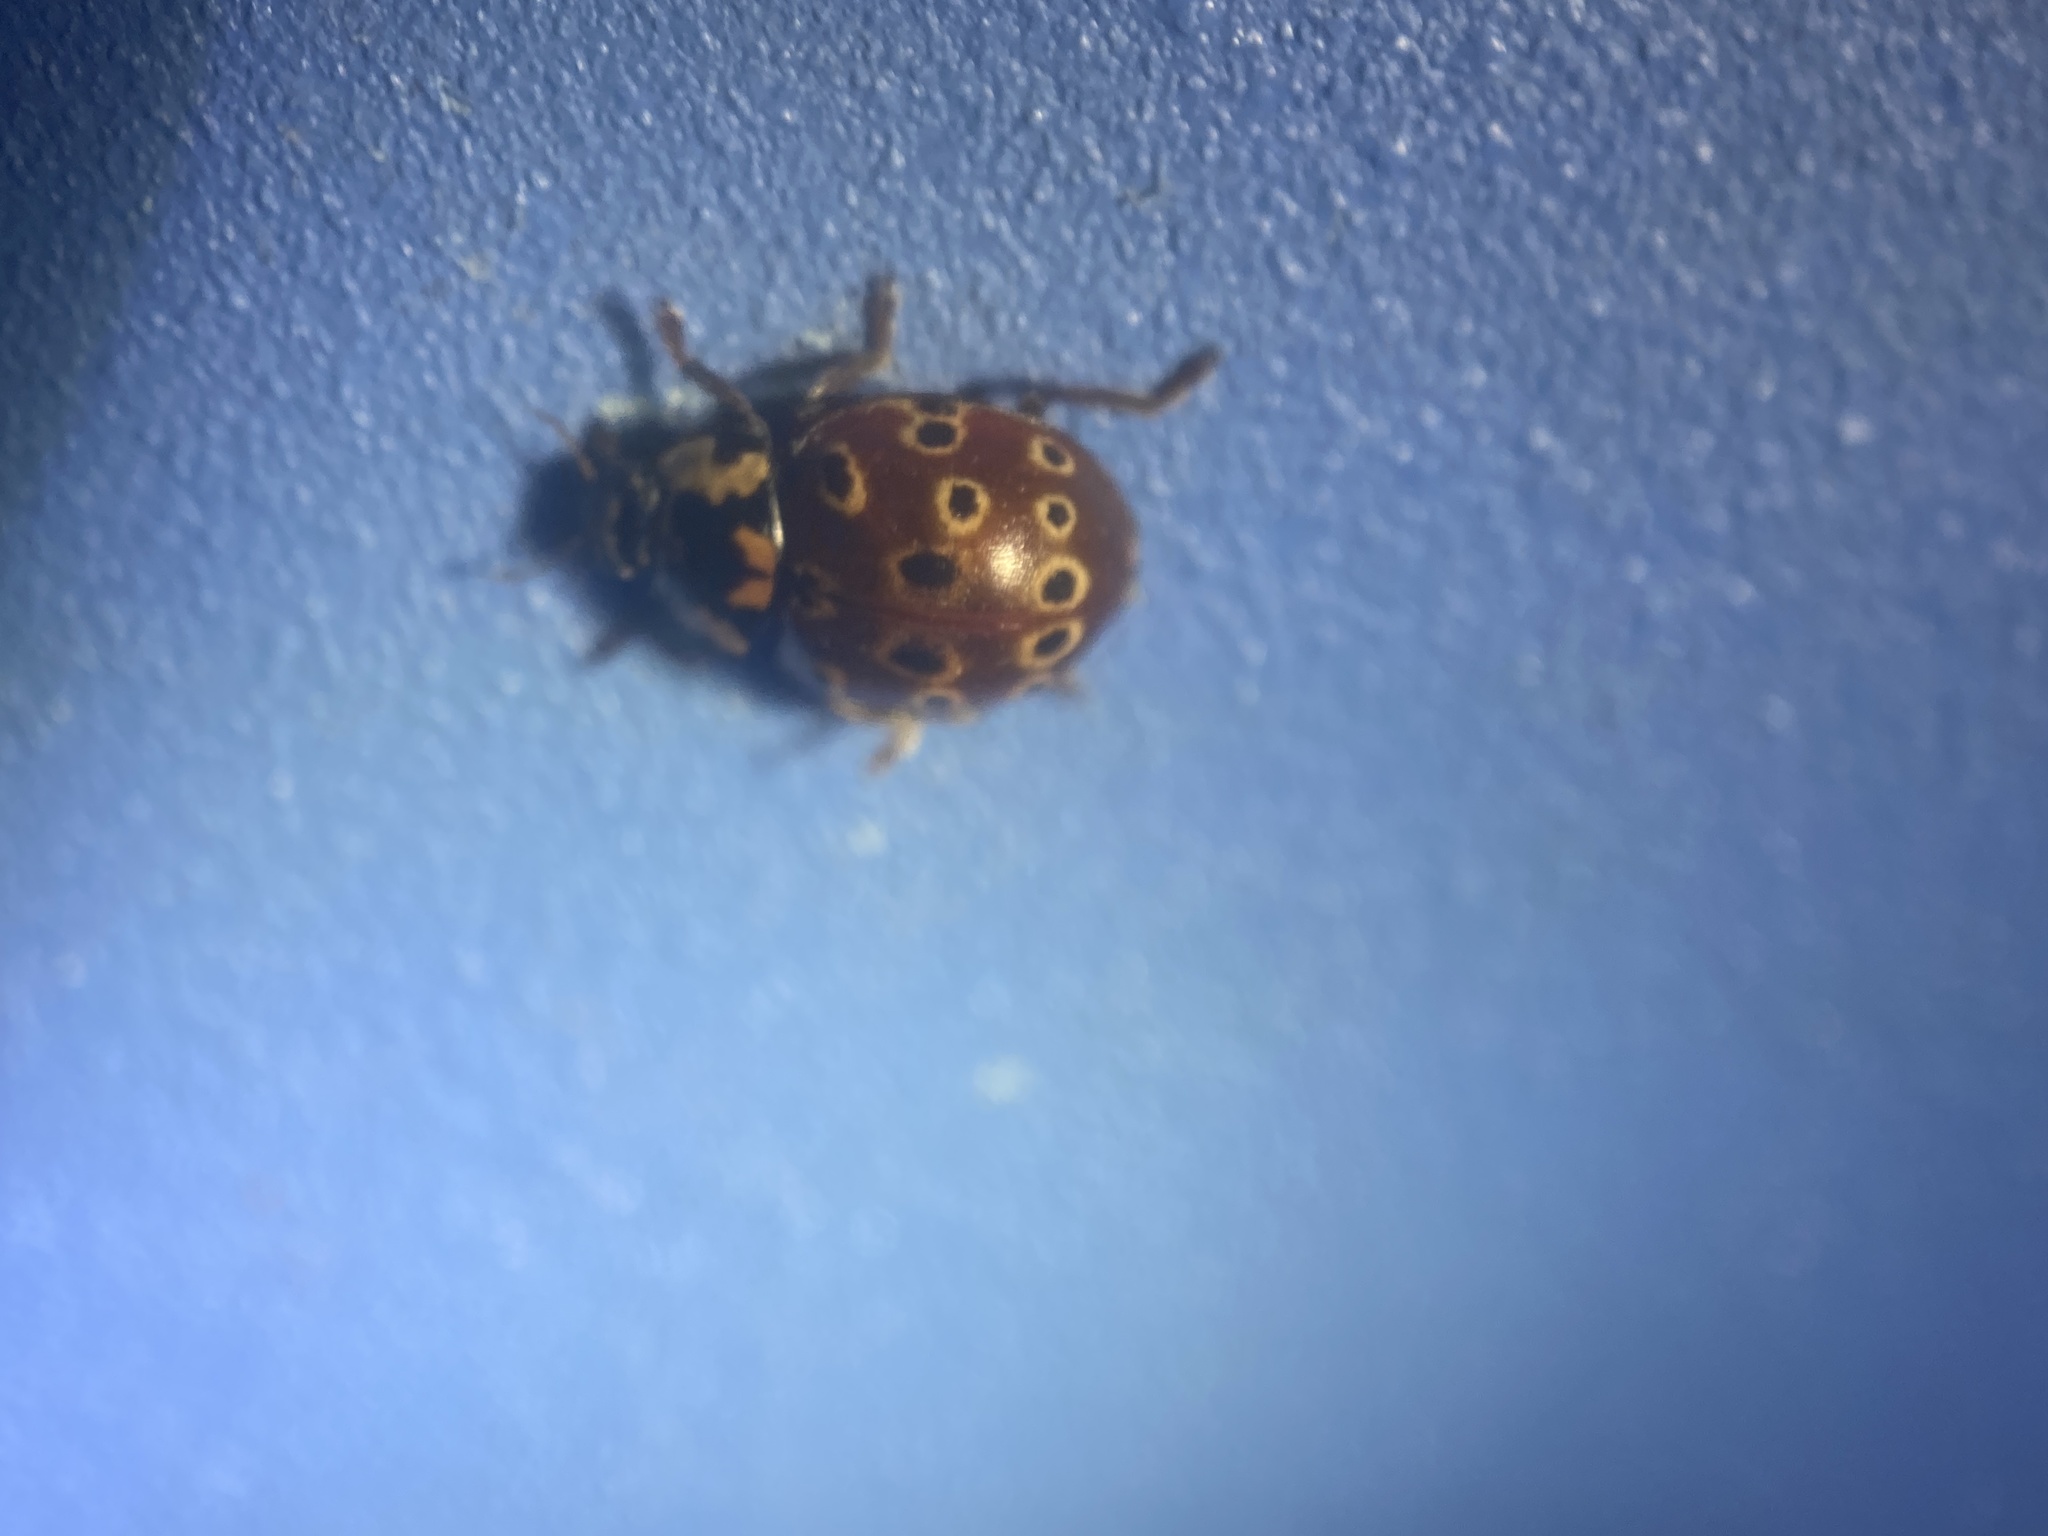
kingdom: Animalia
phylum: Arthropoda
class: Insecta
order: Coleoptera
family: Coccinellidae
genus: Anatis
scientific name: Anatis mali
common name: Eye-spotted lady beetle
